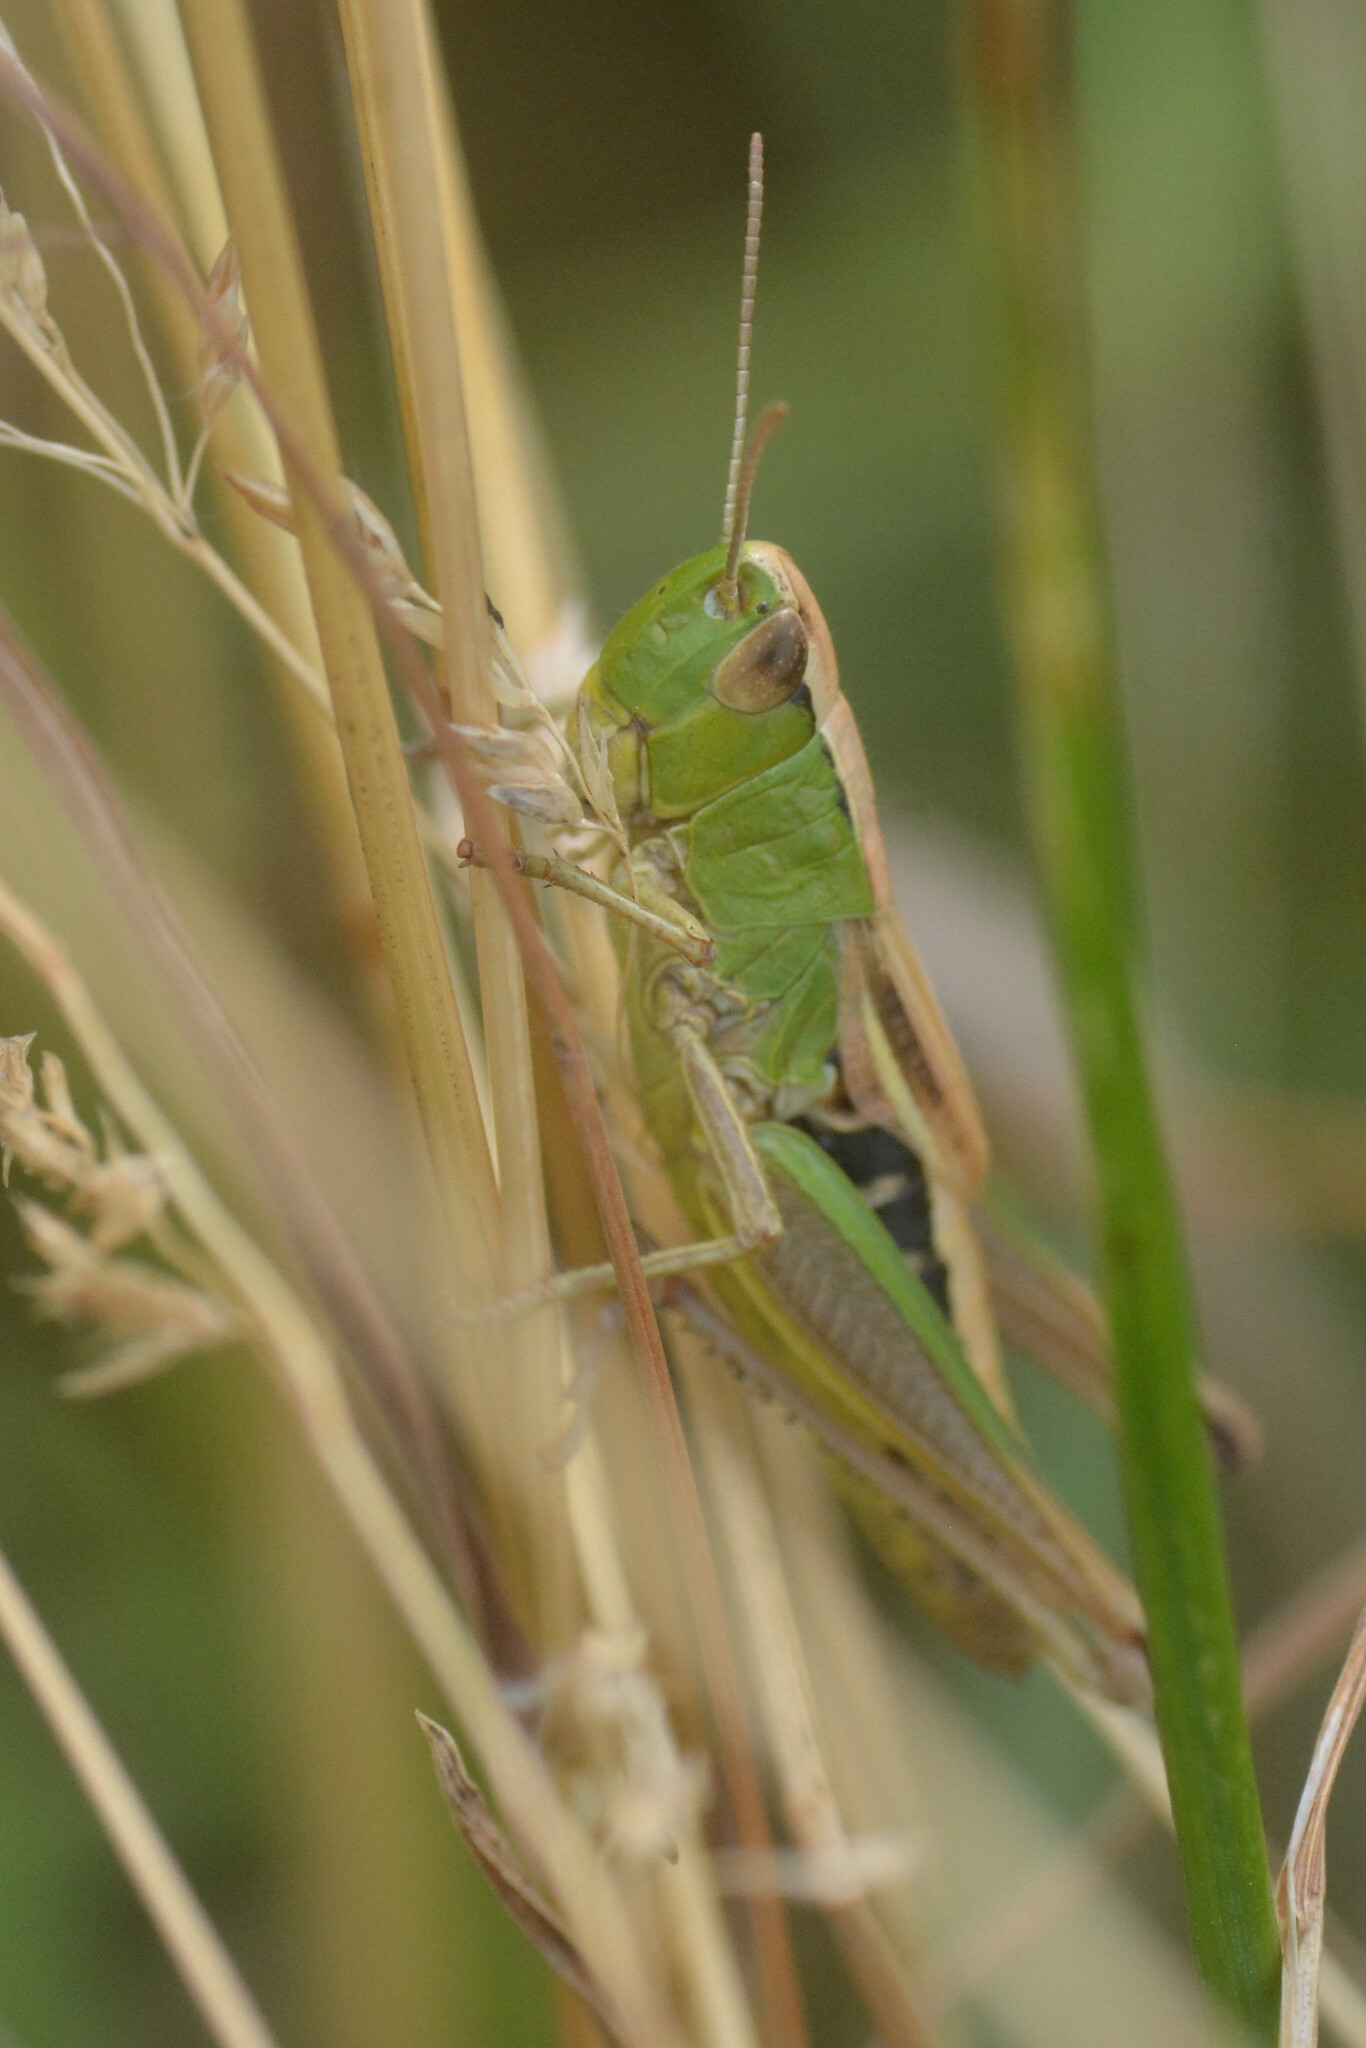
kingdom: Animalia
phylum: Arthropoda
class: Insecta
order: Orthoptera
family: Acrididae
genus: Pseudochorthippus
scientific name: Pseudochorthippus parallelus
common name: Meadow grasshopper
